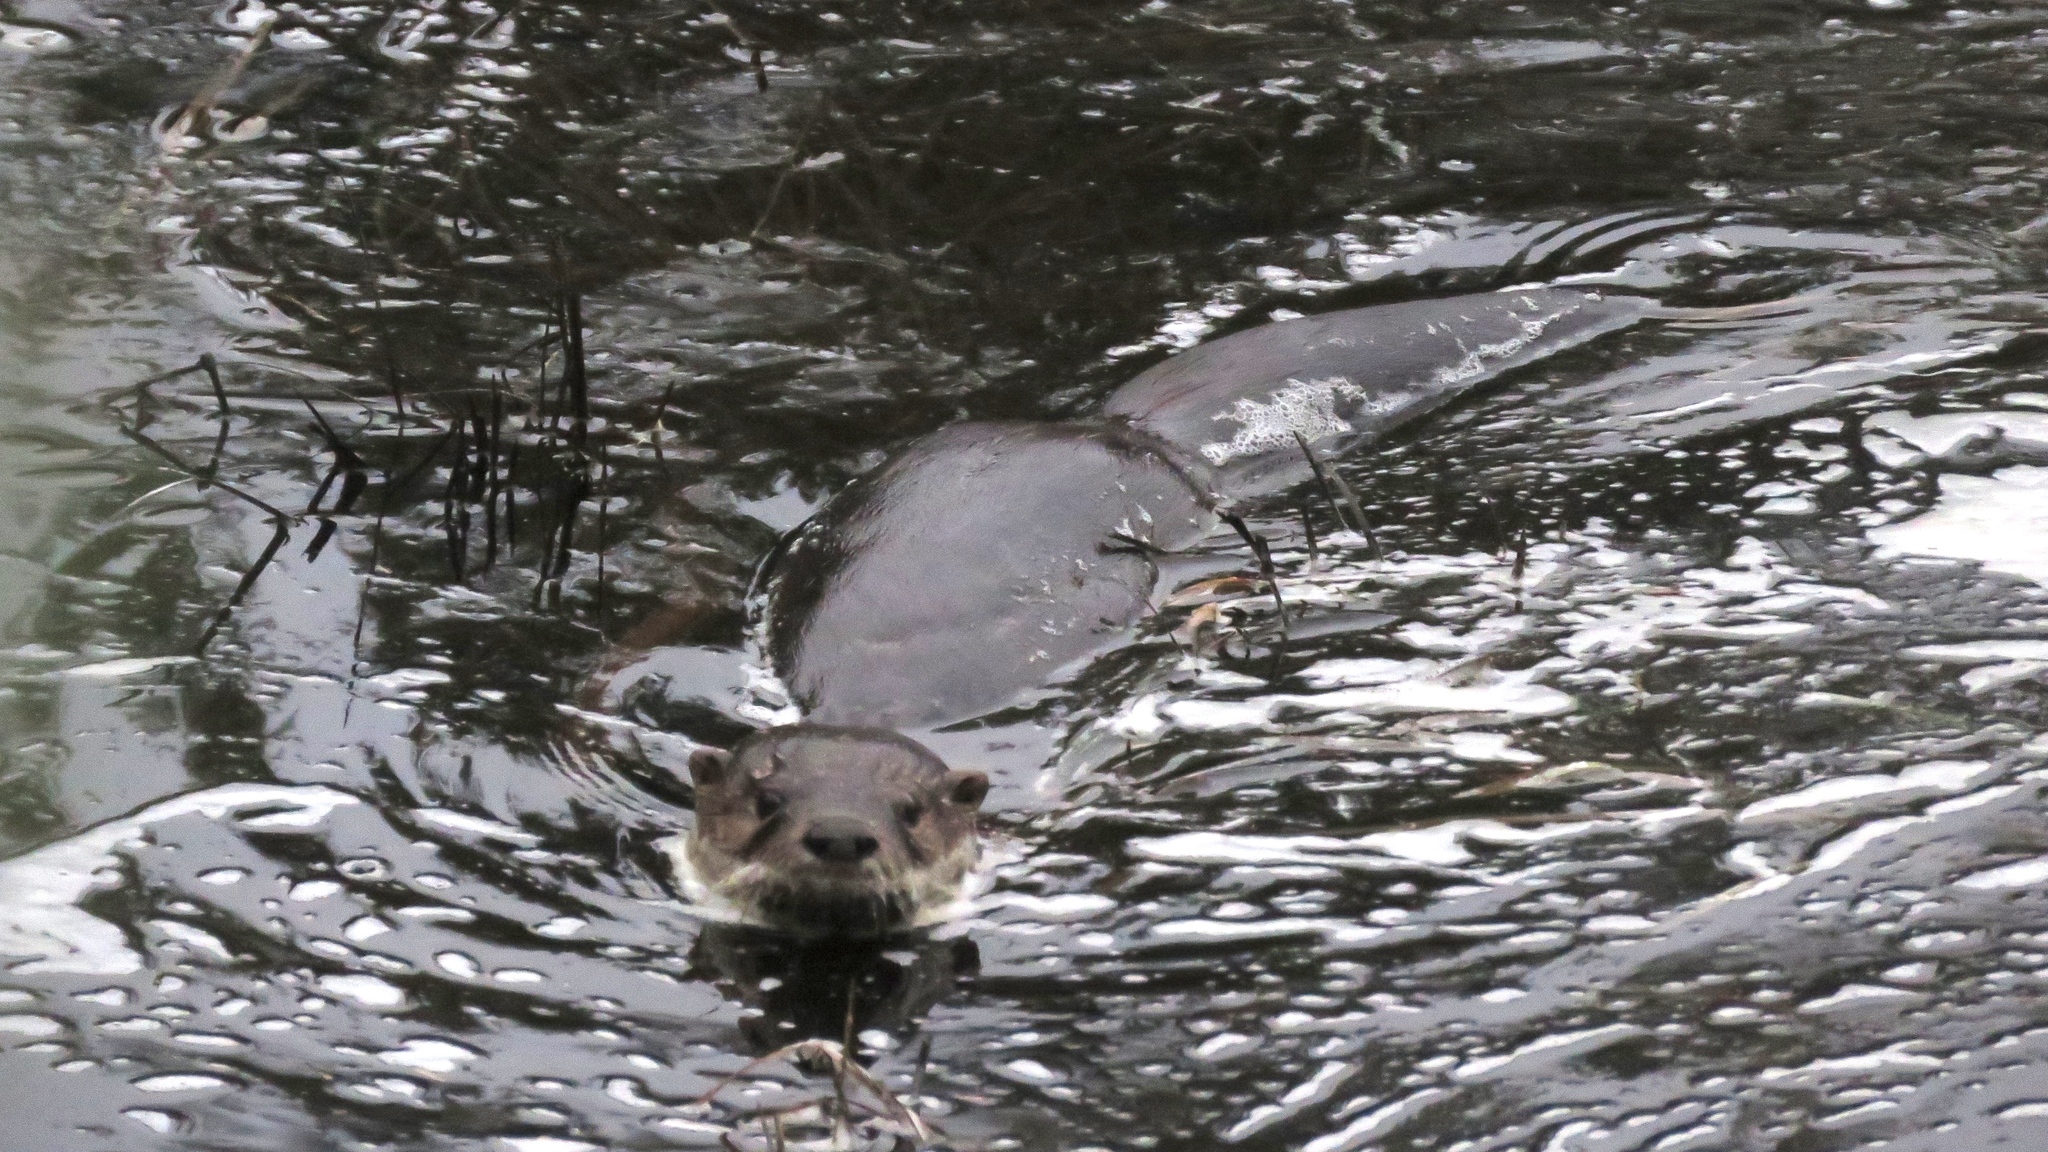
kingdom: Animalia
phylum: Chordata
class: Mammalia
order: Carnivora
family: Mustelidae
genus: Lontra
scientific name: Lontra canadensis
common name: North american river otter
